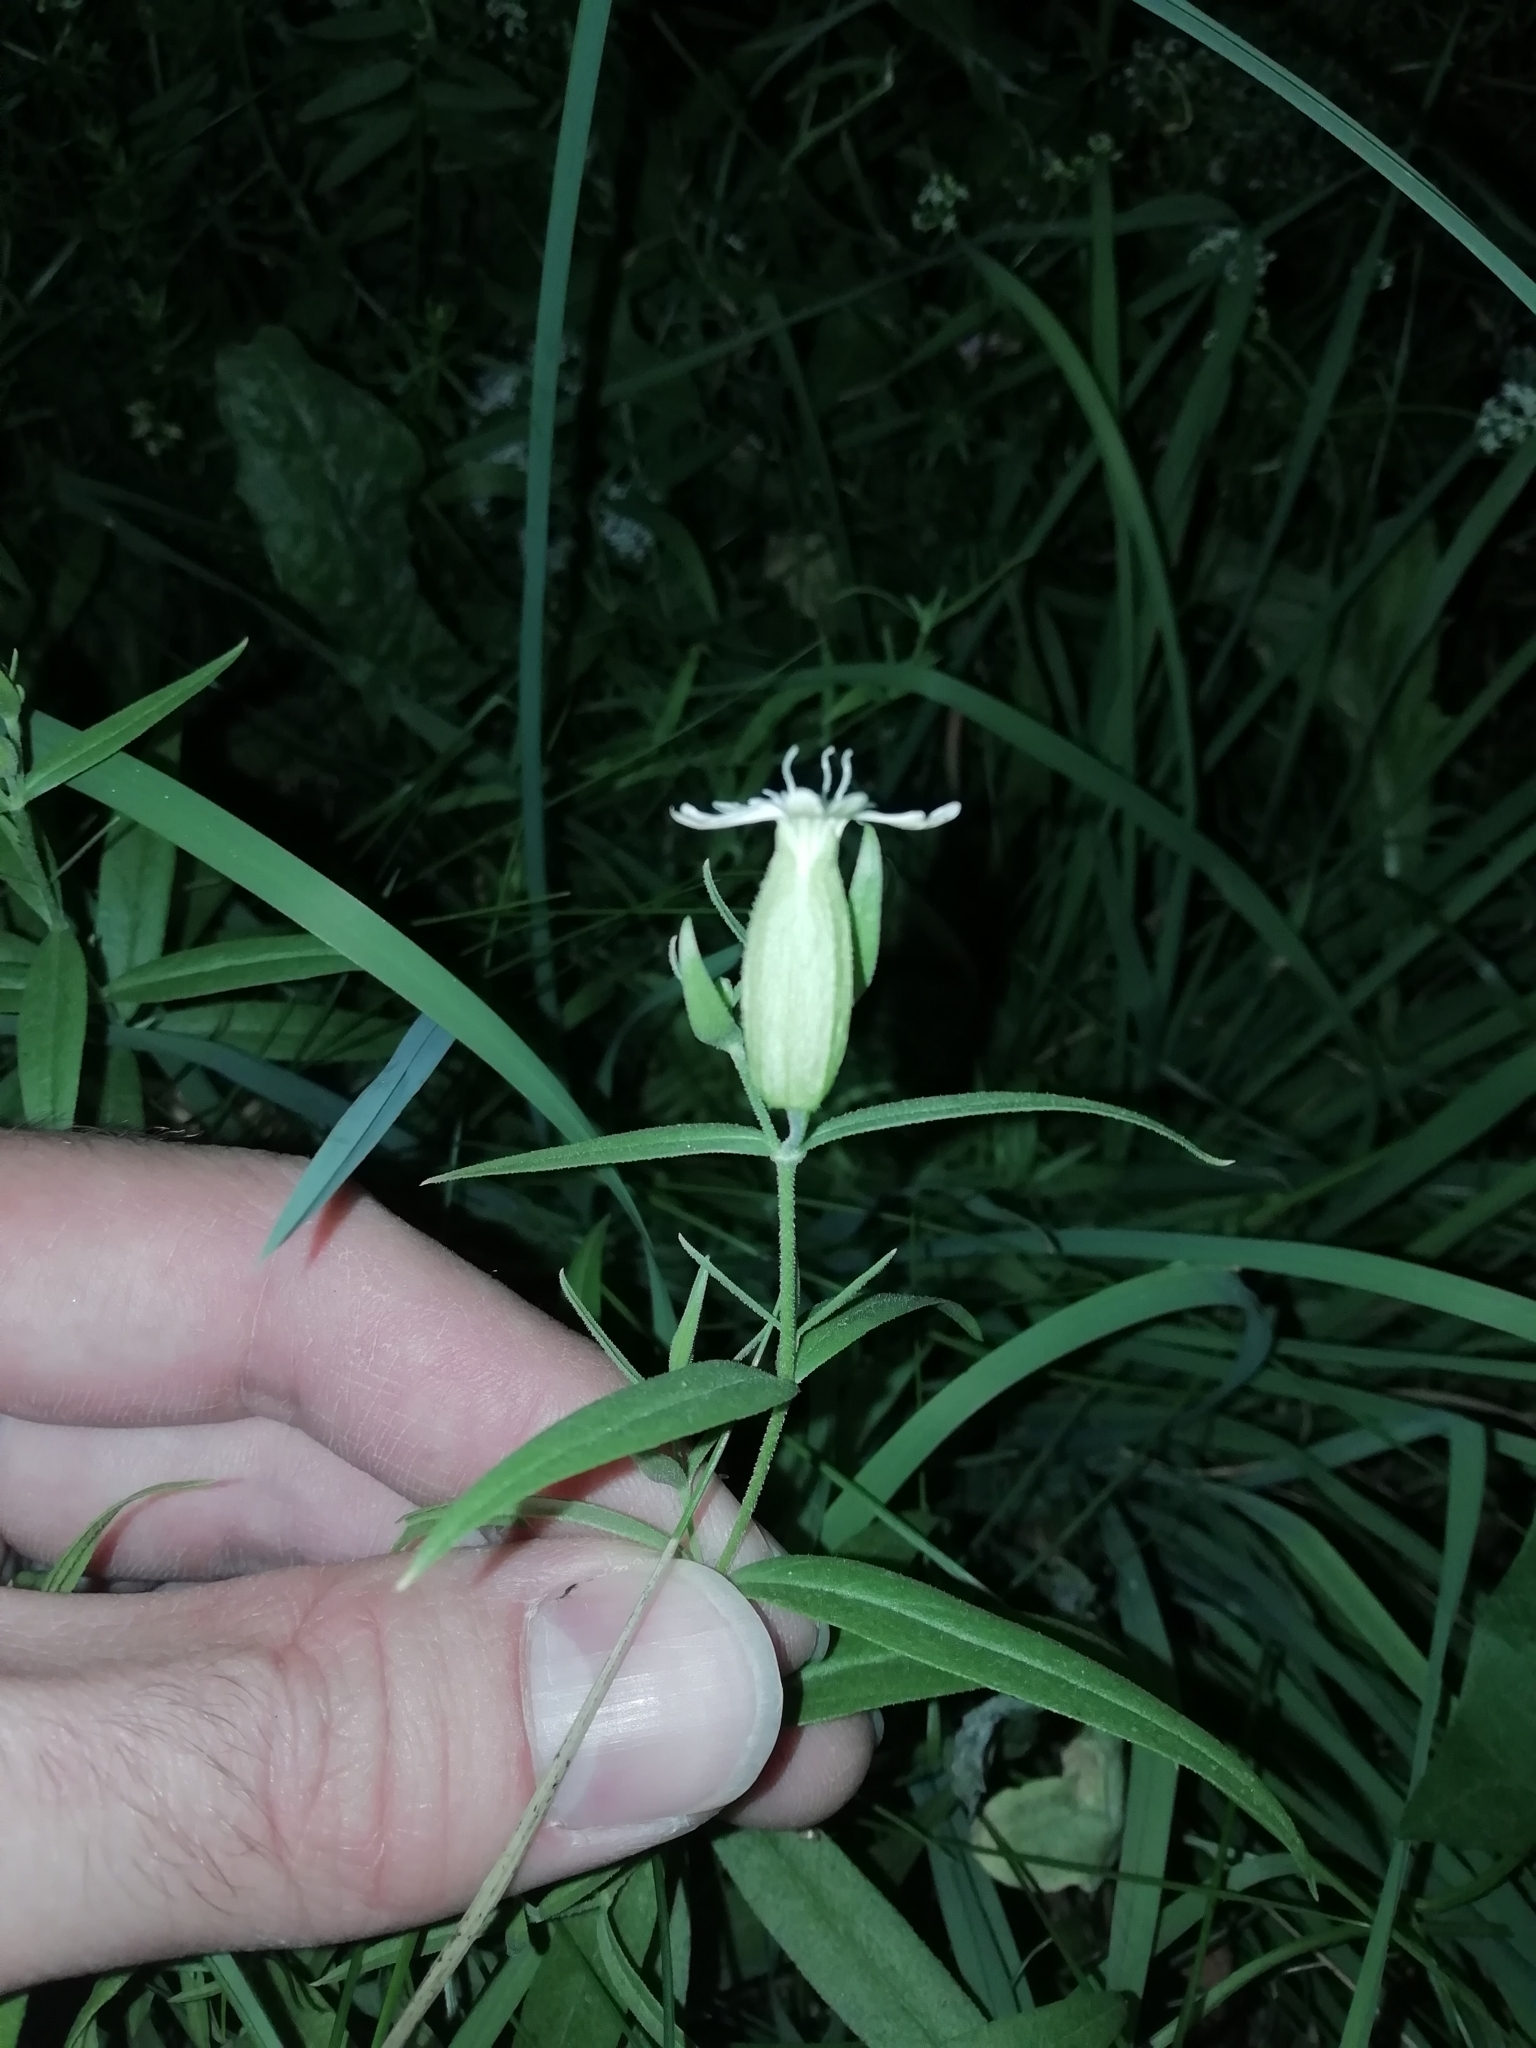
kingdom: Plantae
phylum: Tracheophyta
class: Magnoliopsida
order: Caryophyllales
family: Caryophyllaceae
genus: Silene
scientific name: Silene procumbens
